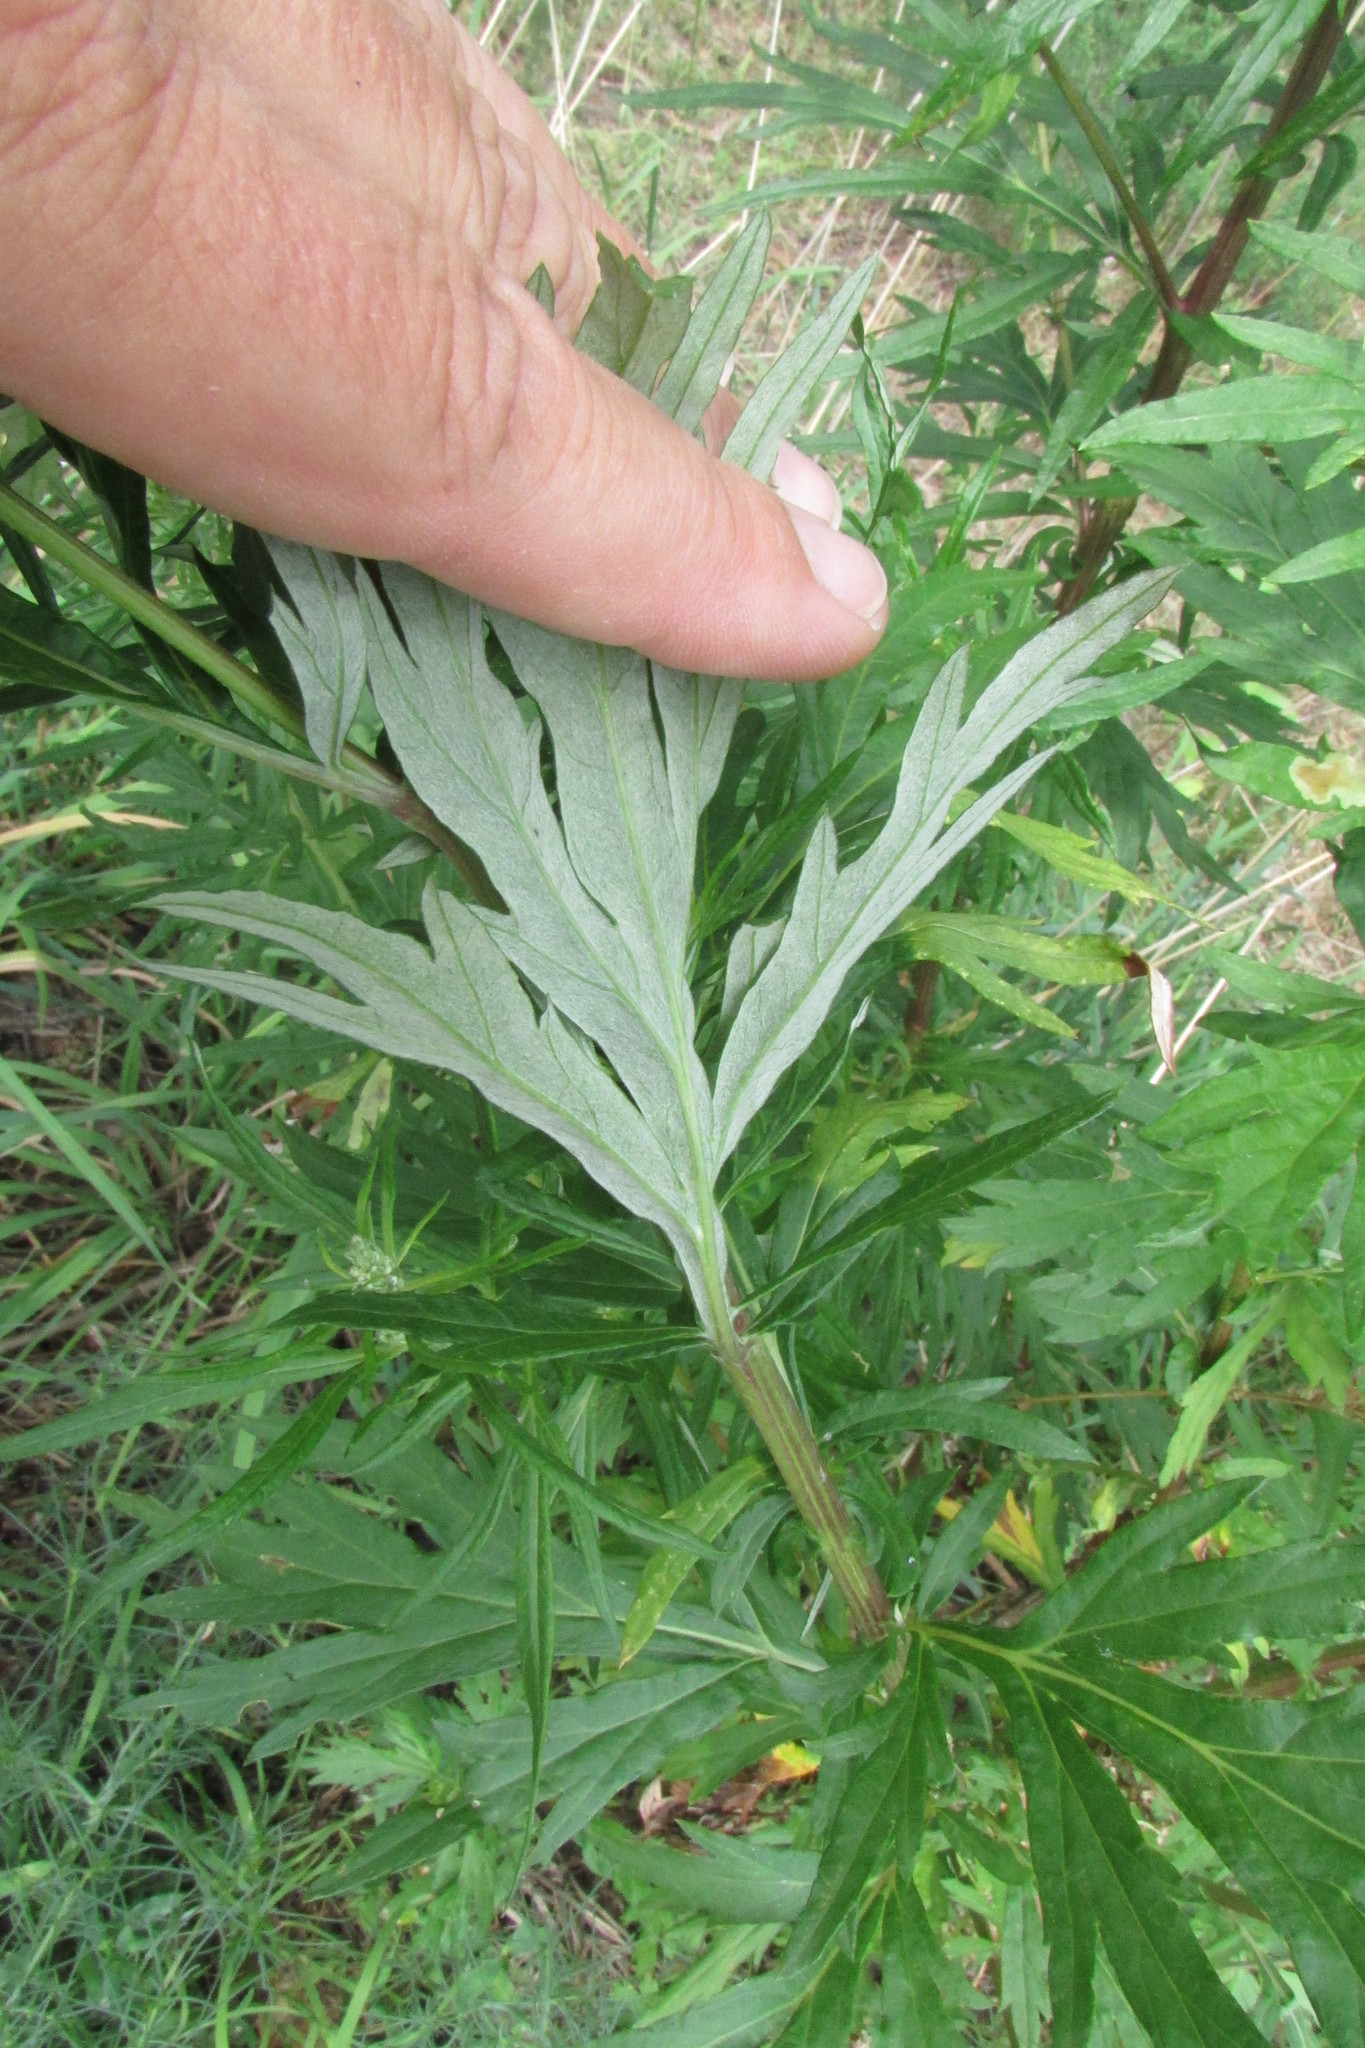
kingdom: Plantae
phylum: Tracheophyta
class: Magnoliopsida
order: Asterales
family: Asteraceae
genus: Artemisia
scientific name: Artemisia vulgaris
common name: Mugwort
